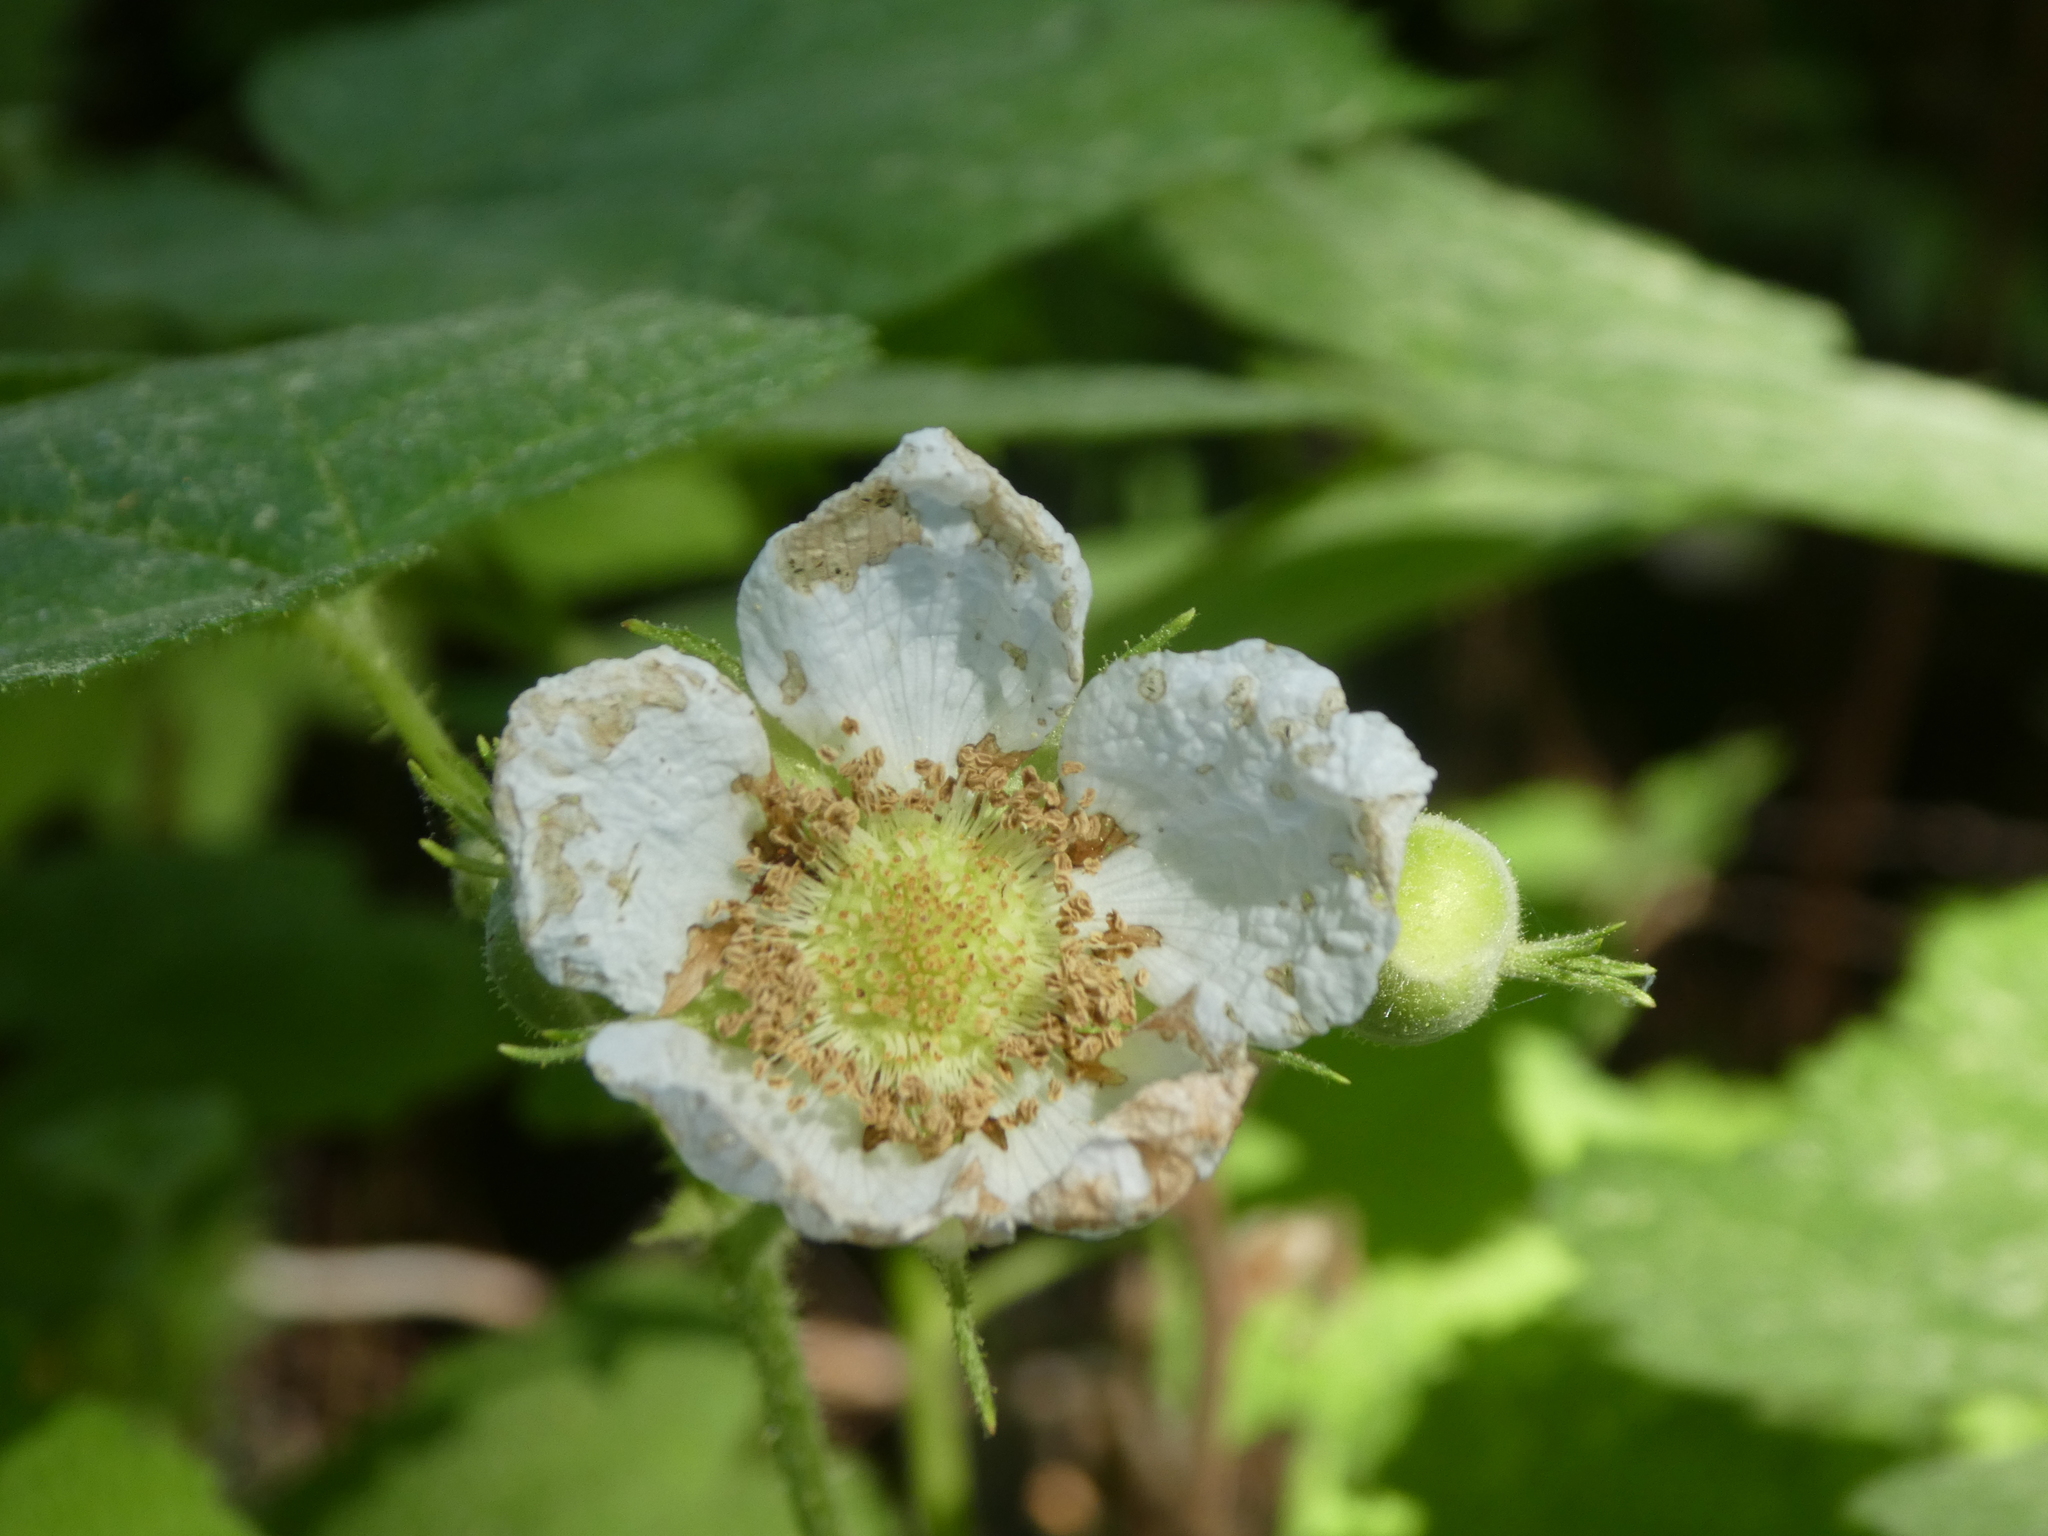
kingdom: Plantae
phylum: Tracheophyta
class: Magnoliopsida
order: Rosales
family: Rosaceae
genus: Rubus
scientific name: Rubus parviflorus
